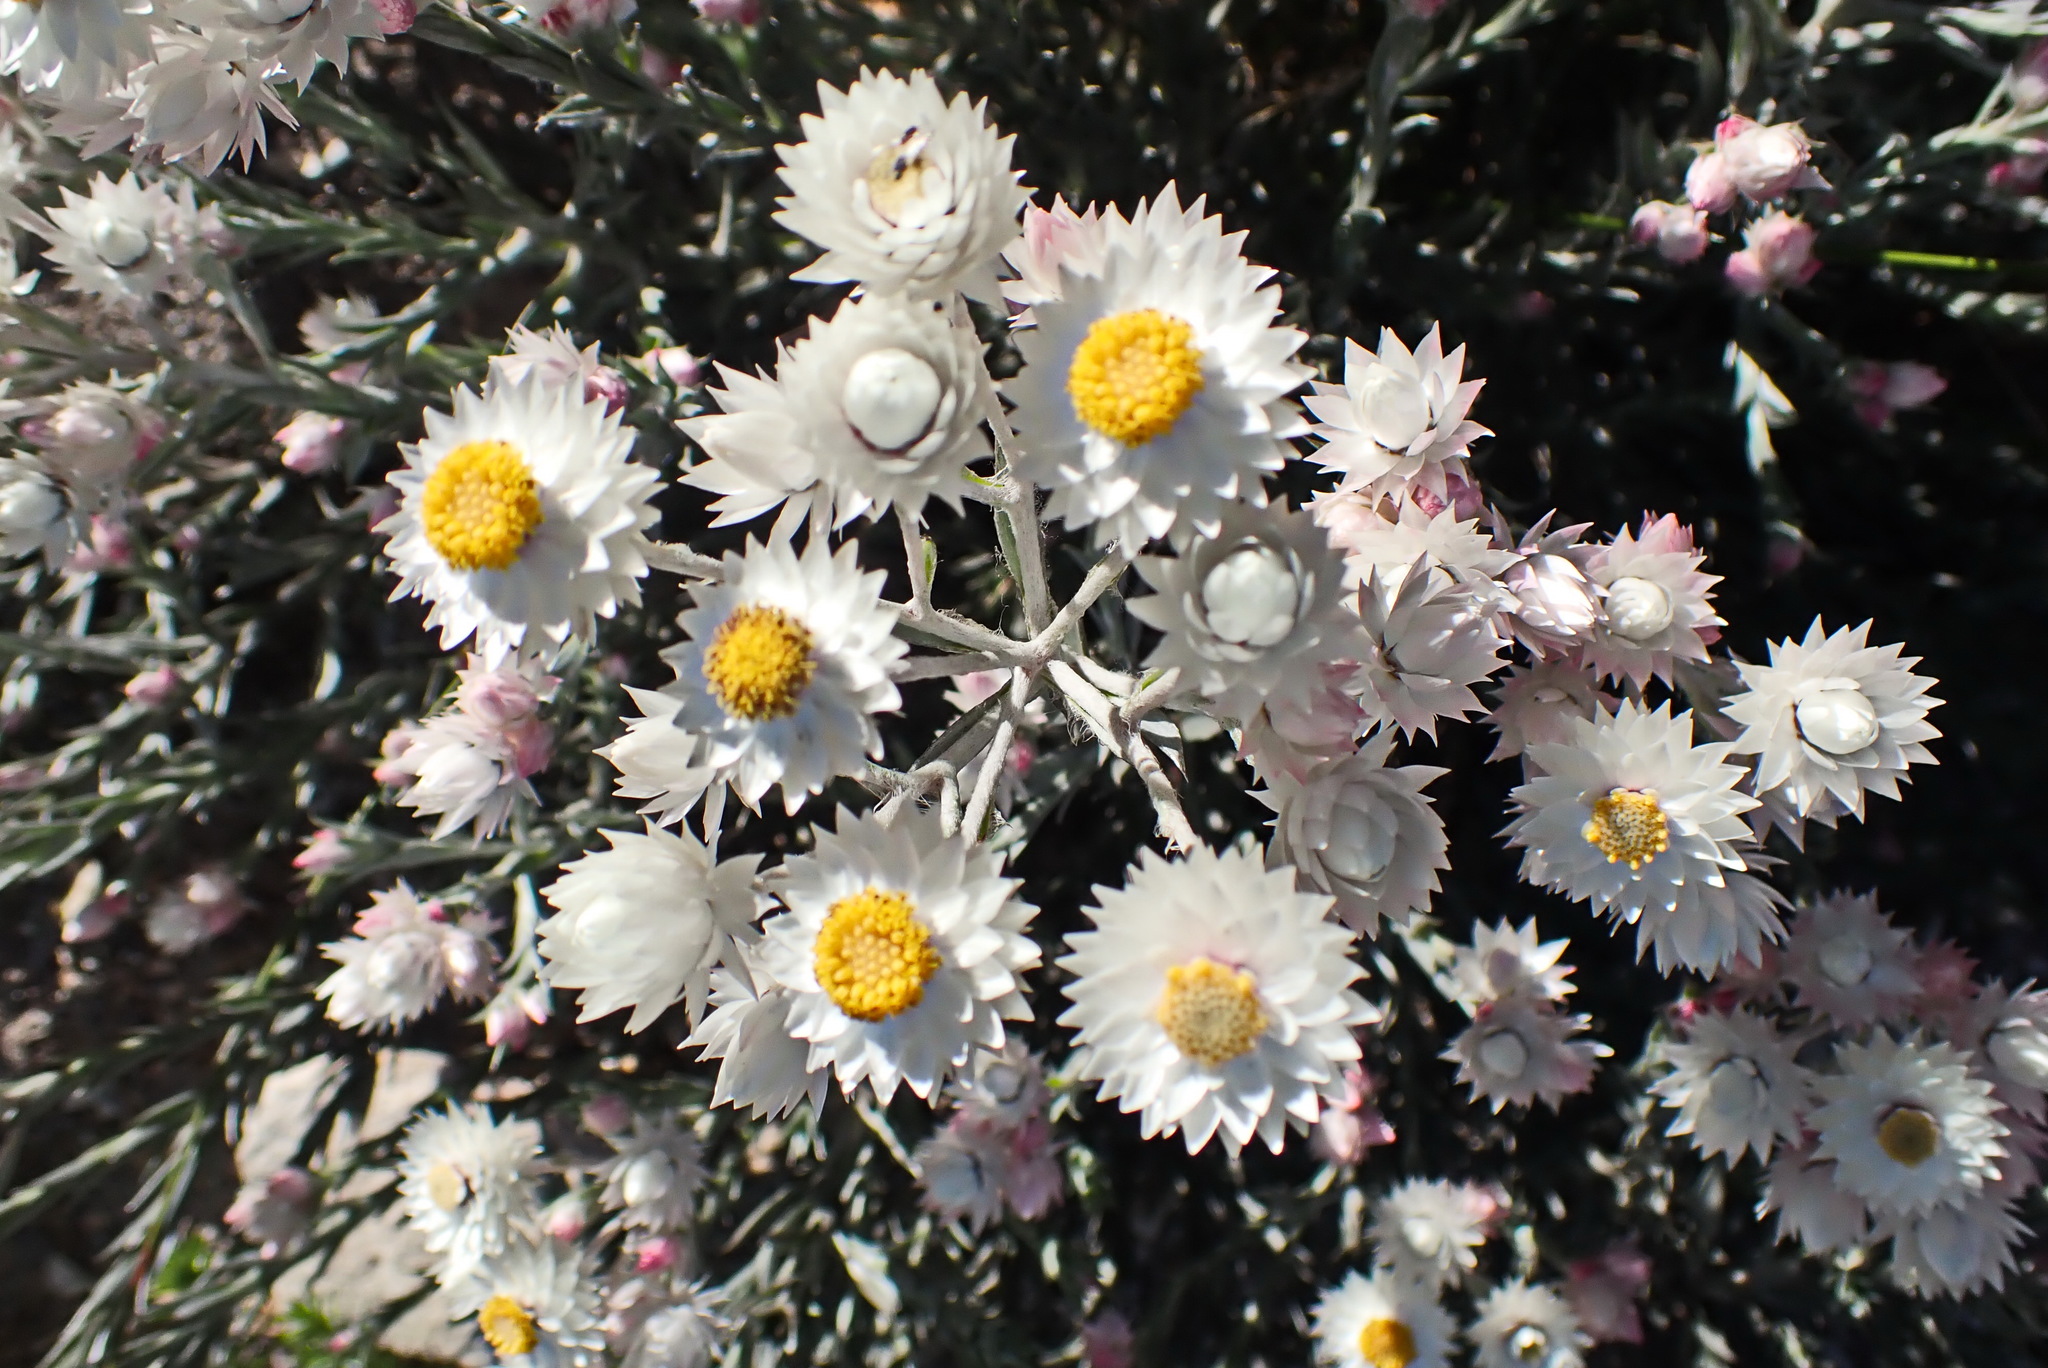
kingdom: Plantae
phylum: Tracheophyta
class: Magnoliopsida
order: Asterales
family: Asteraceae
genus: Achyranthemum
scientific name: Achyranthemum paniculatum
